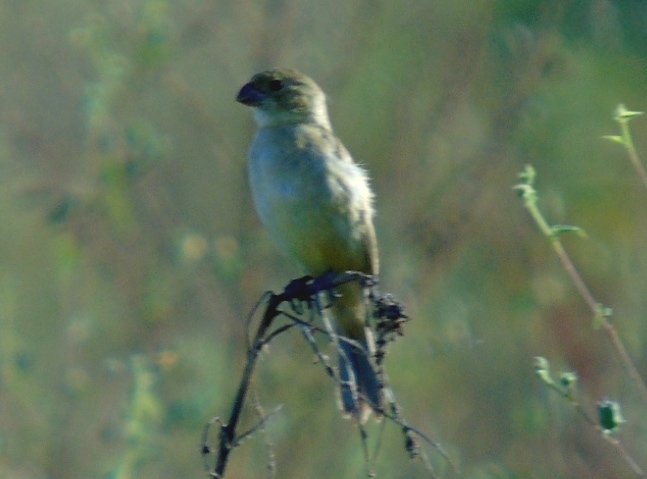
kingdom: Animalia
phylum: Chordata
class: Aves
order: Passeriformes
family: Thraupidae
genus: Sporophila
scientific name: Sporophila torqueola
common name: White-collared seedeater
